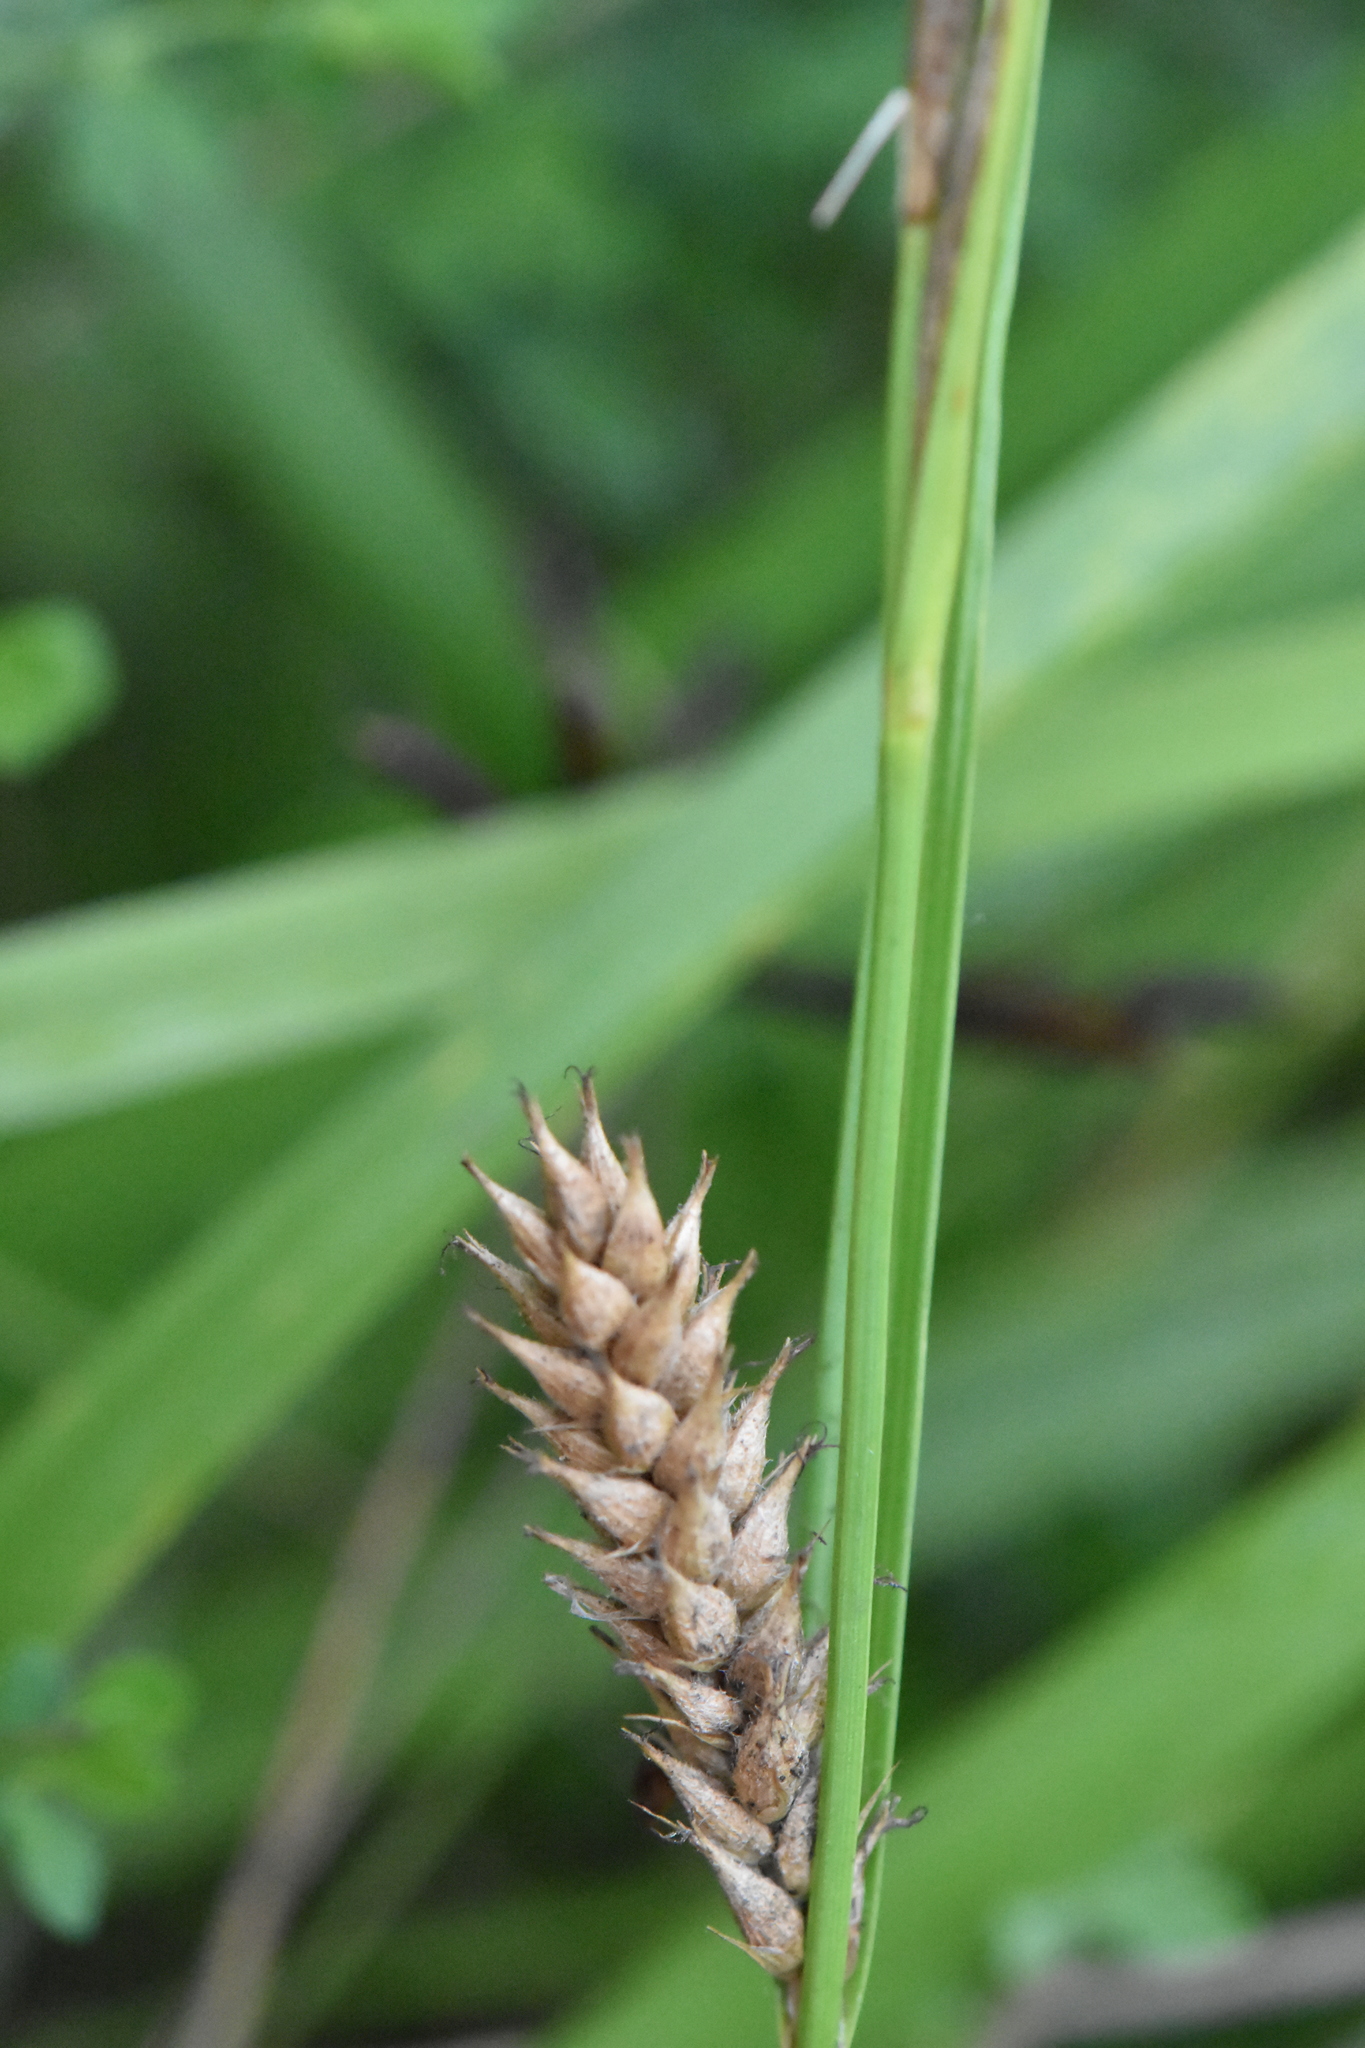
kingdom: Plantae
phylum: Tracheophyta
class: Liliopsida
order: Poales
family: Cyperaceae
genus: Carex
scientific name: Carex hirta
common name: Hairy sedge
